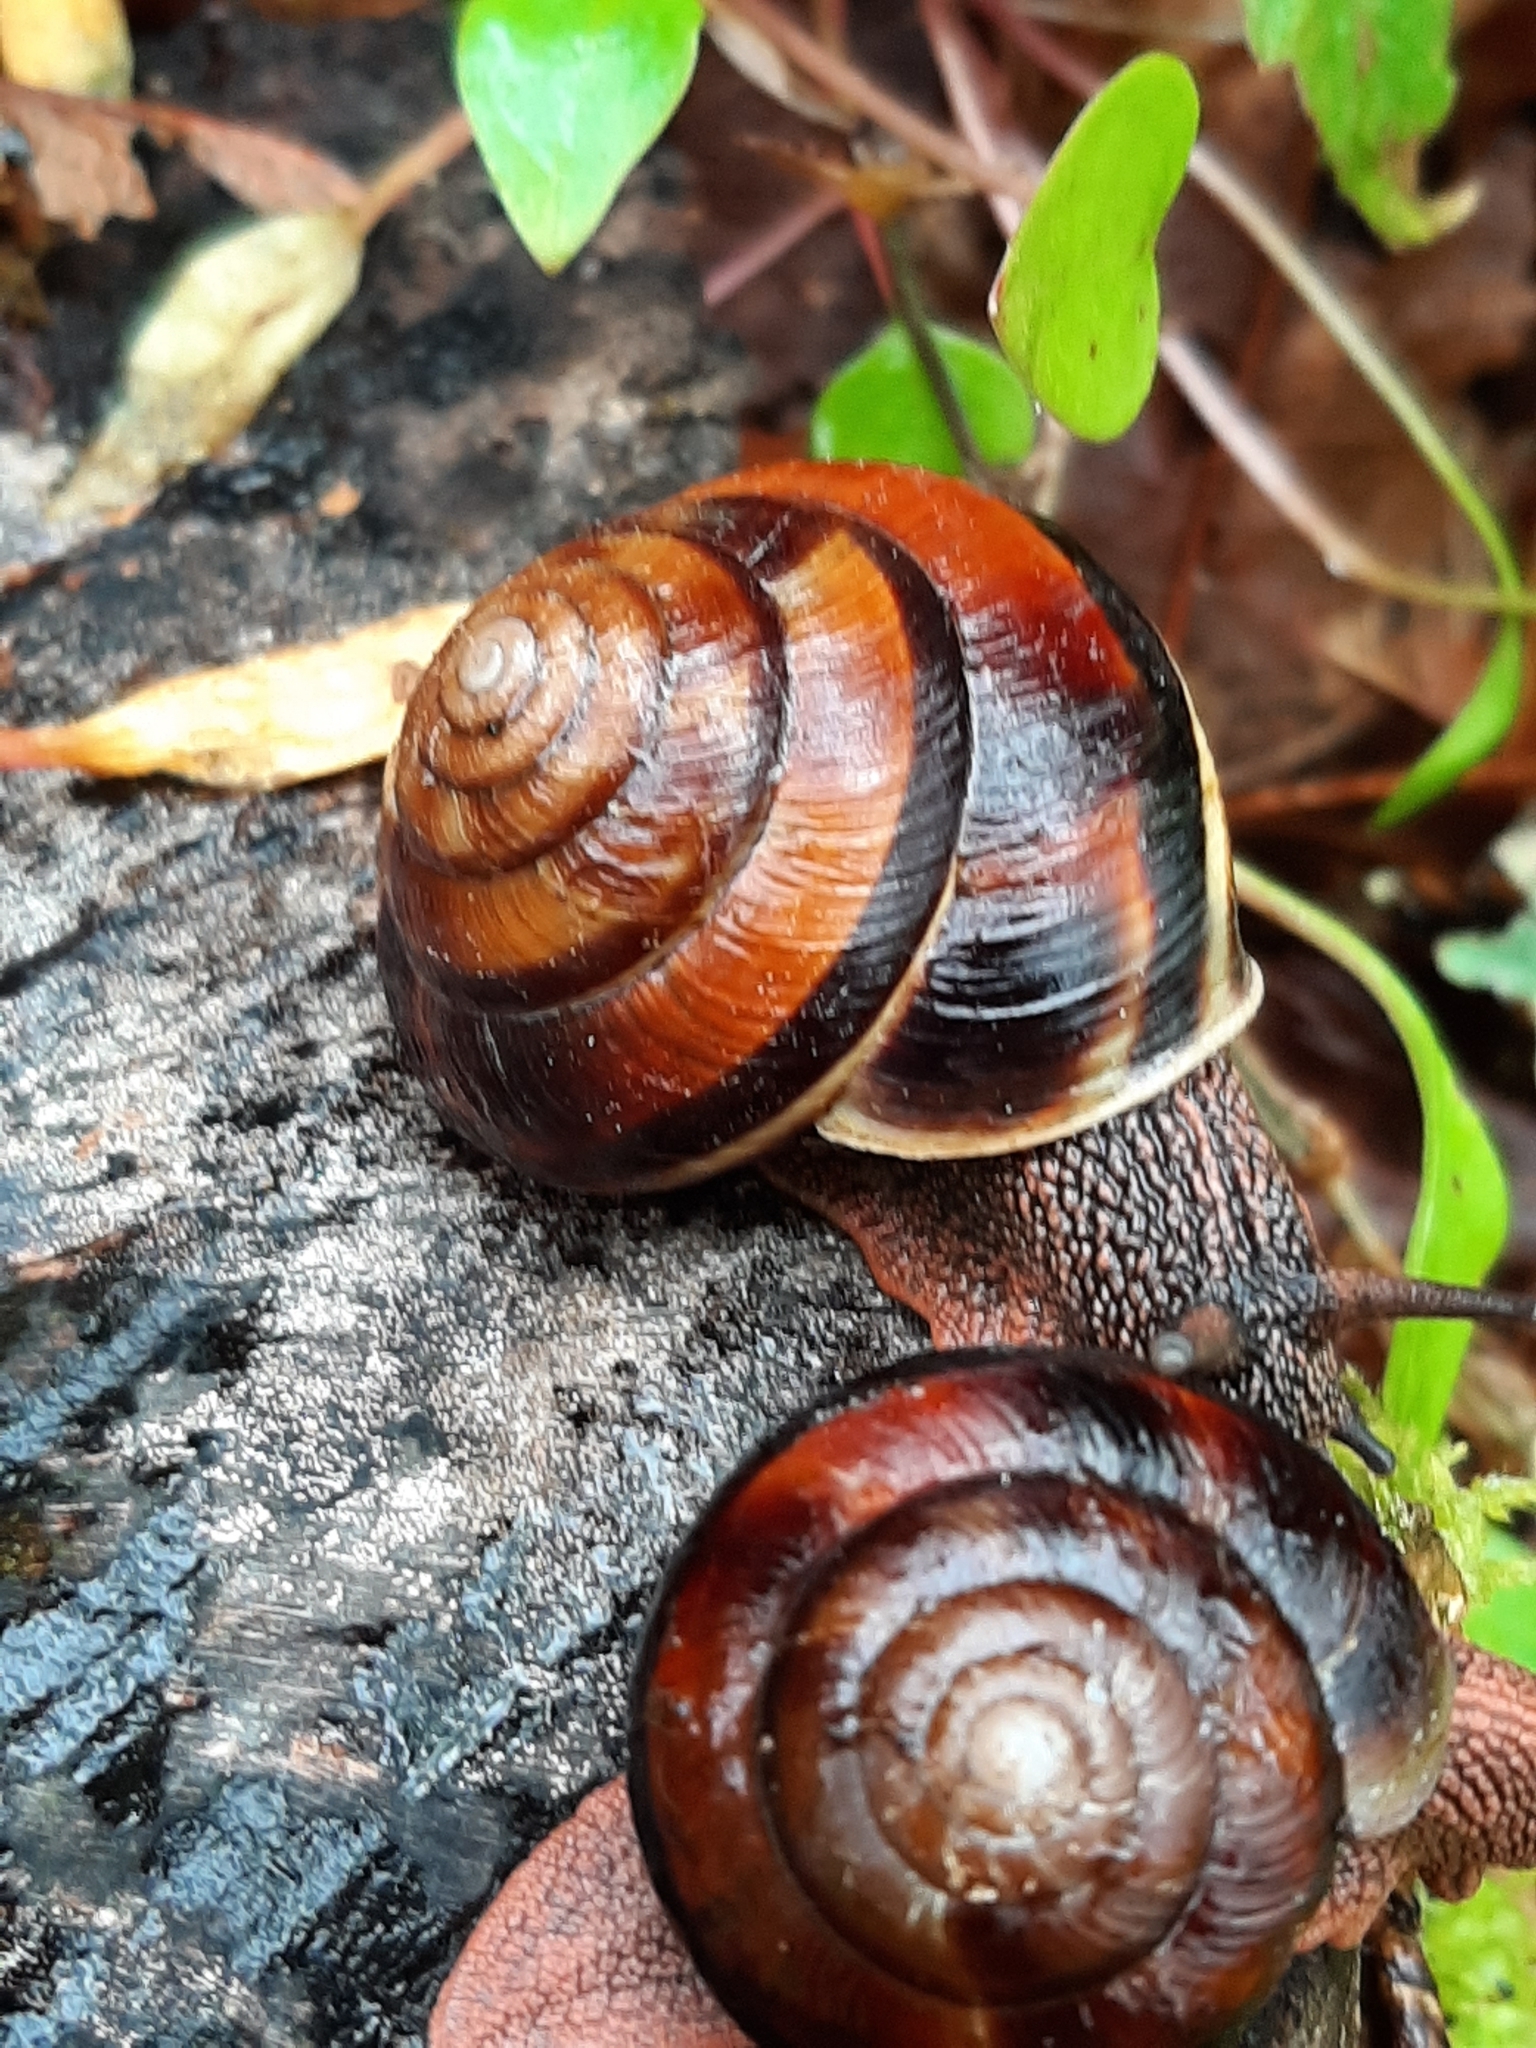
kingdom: Animalia
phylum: Mollusca
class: Gastropoda
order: Stylommatophora
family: Xanthonychidae
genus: Monadenia
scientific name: Monadenia fidelis
